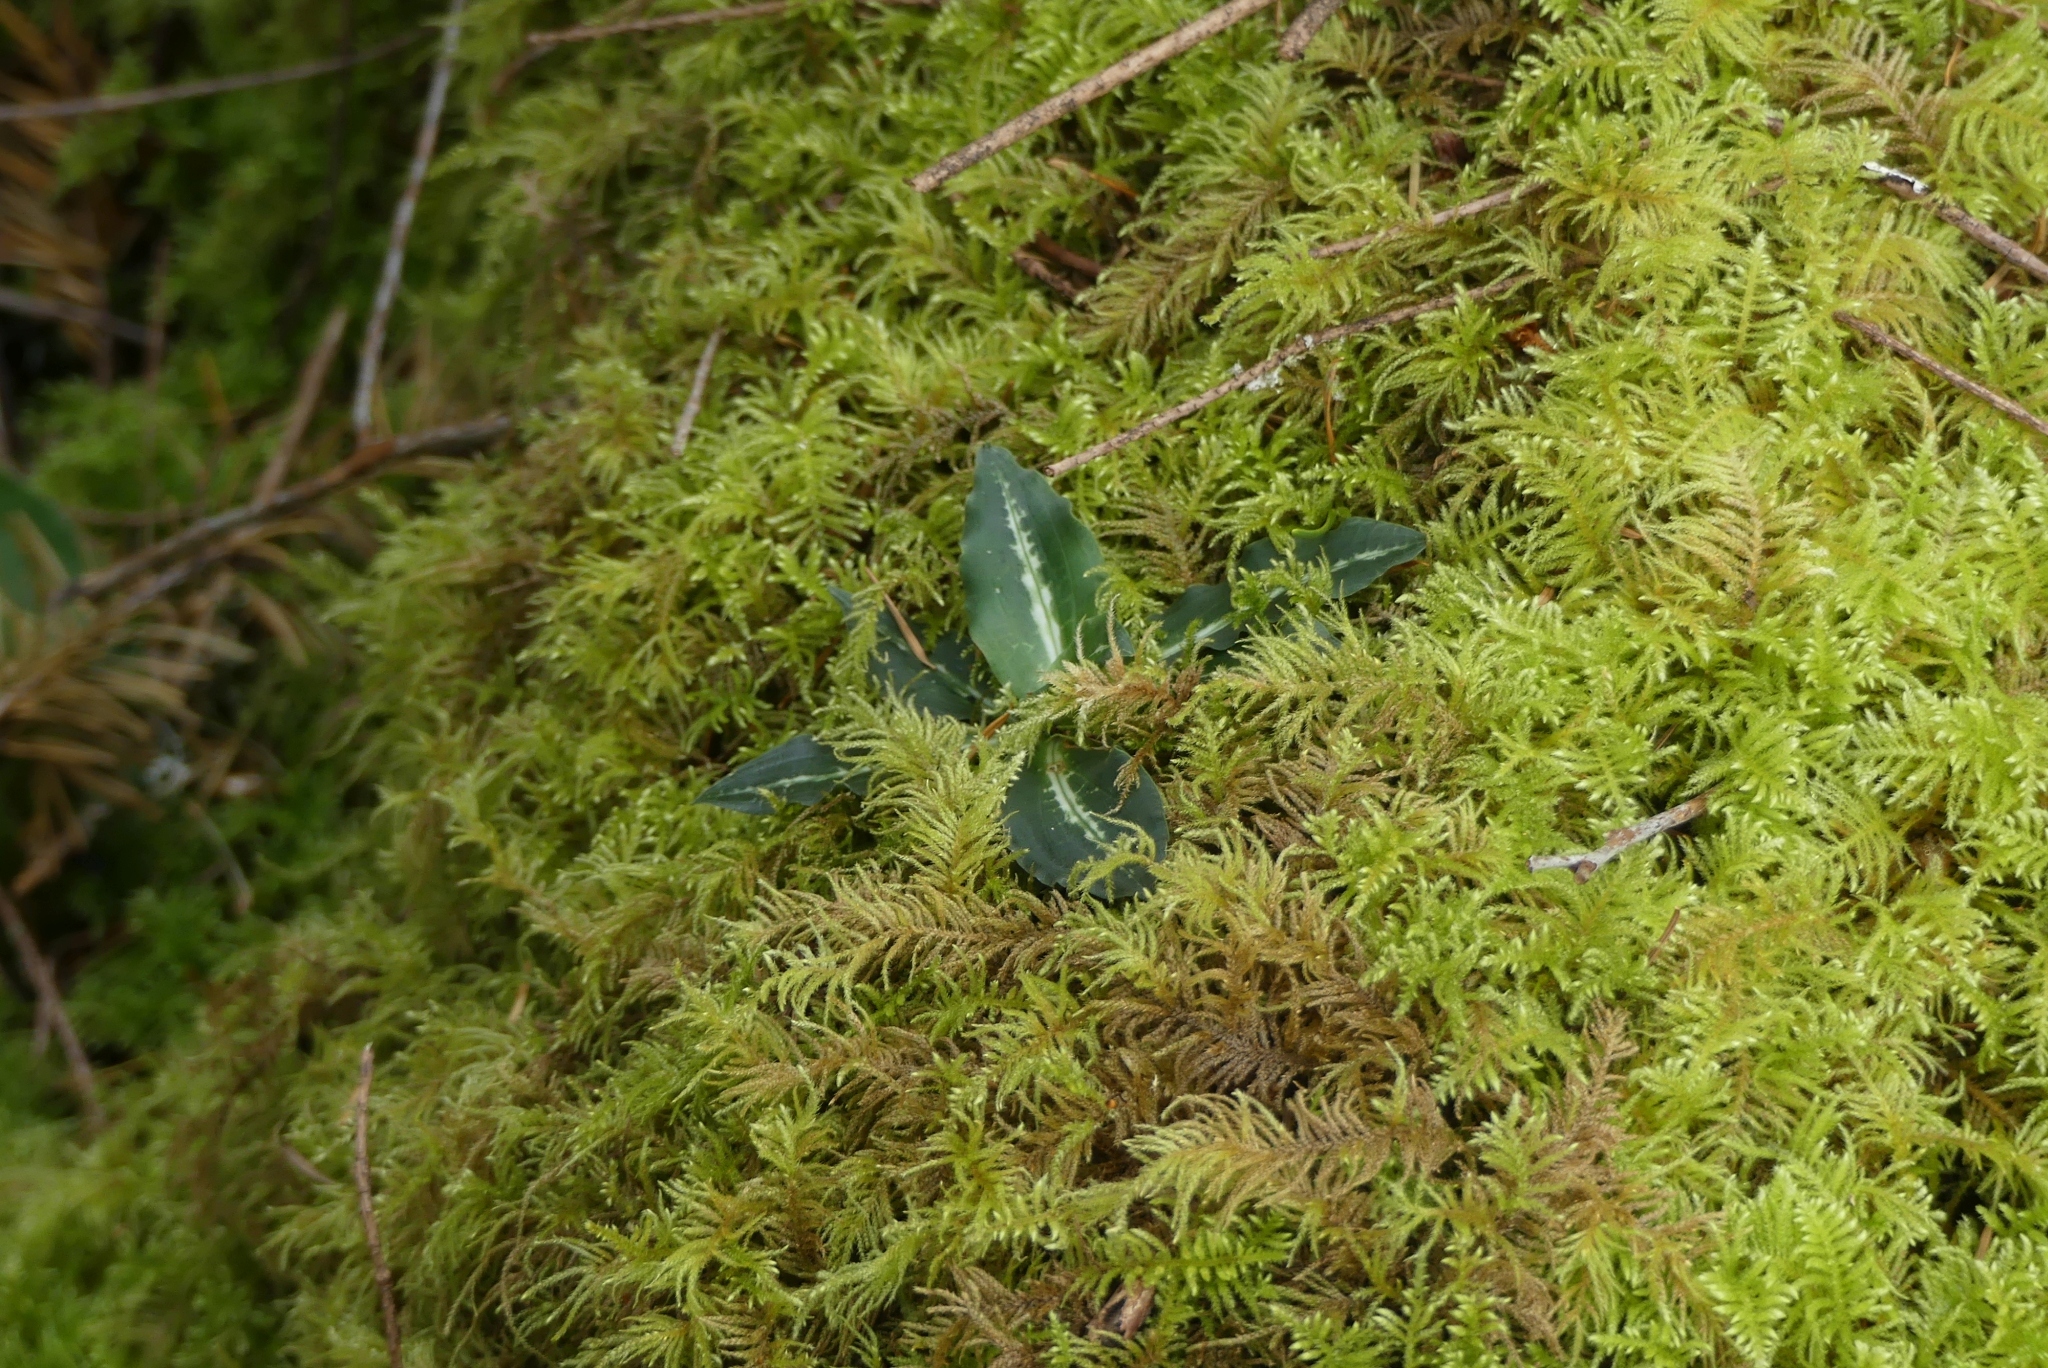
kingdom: Plantae
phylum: Tracheophyta
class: Liliopsida
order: Asparagales
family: Orchidaceae
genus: Goodyera
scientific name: Goodyera oblongifolia
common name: Giant rattlesnake-plantain
